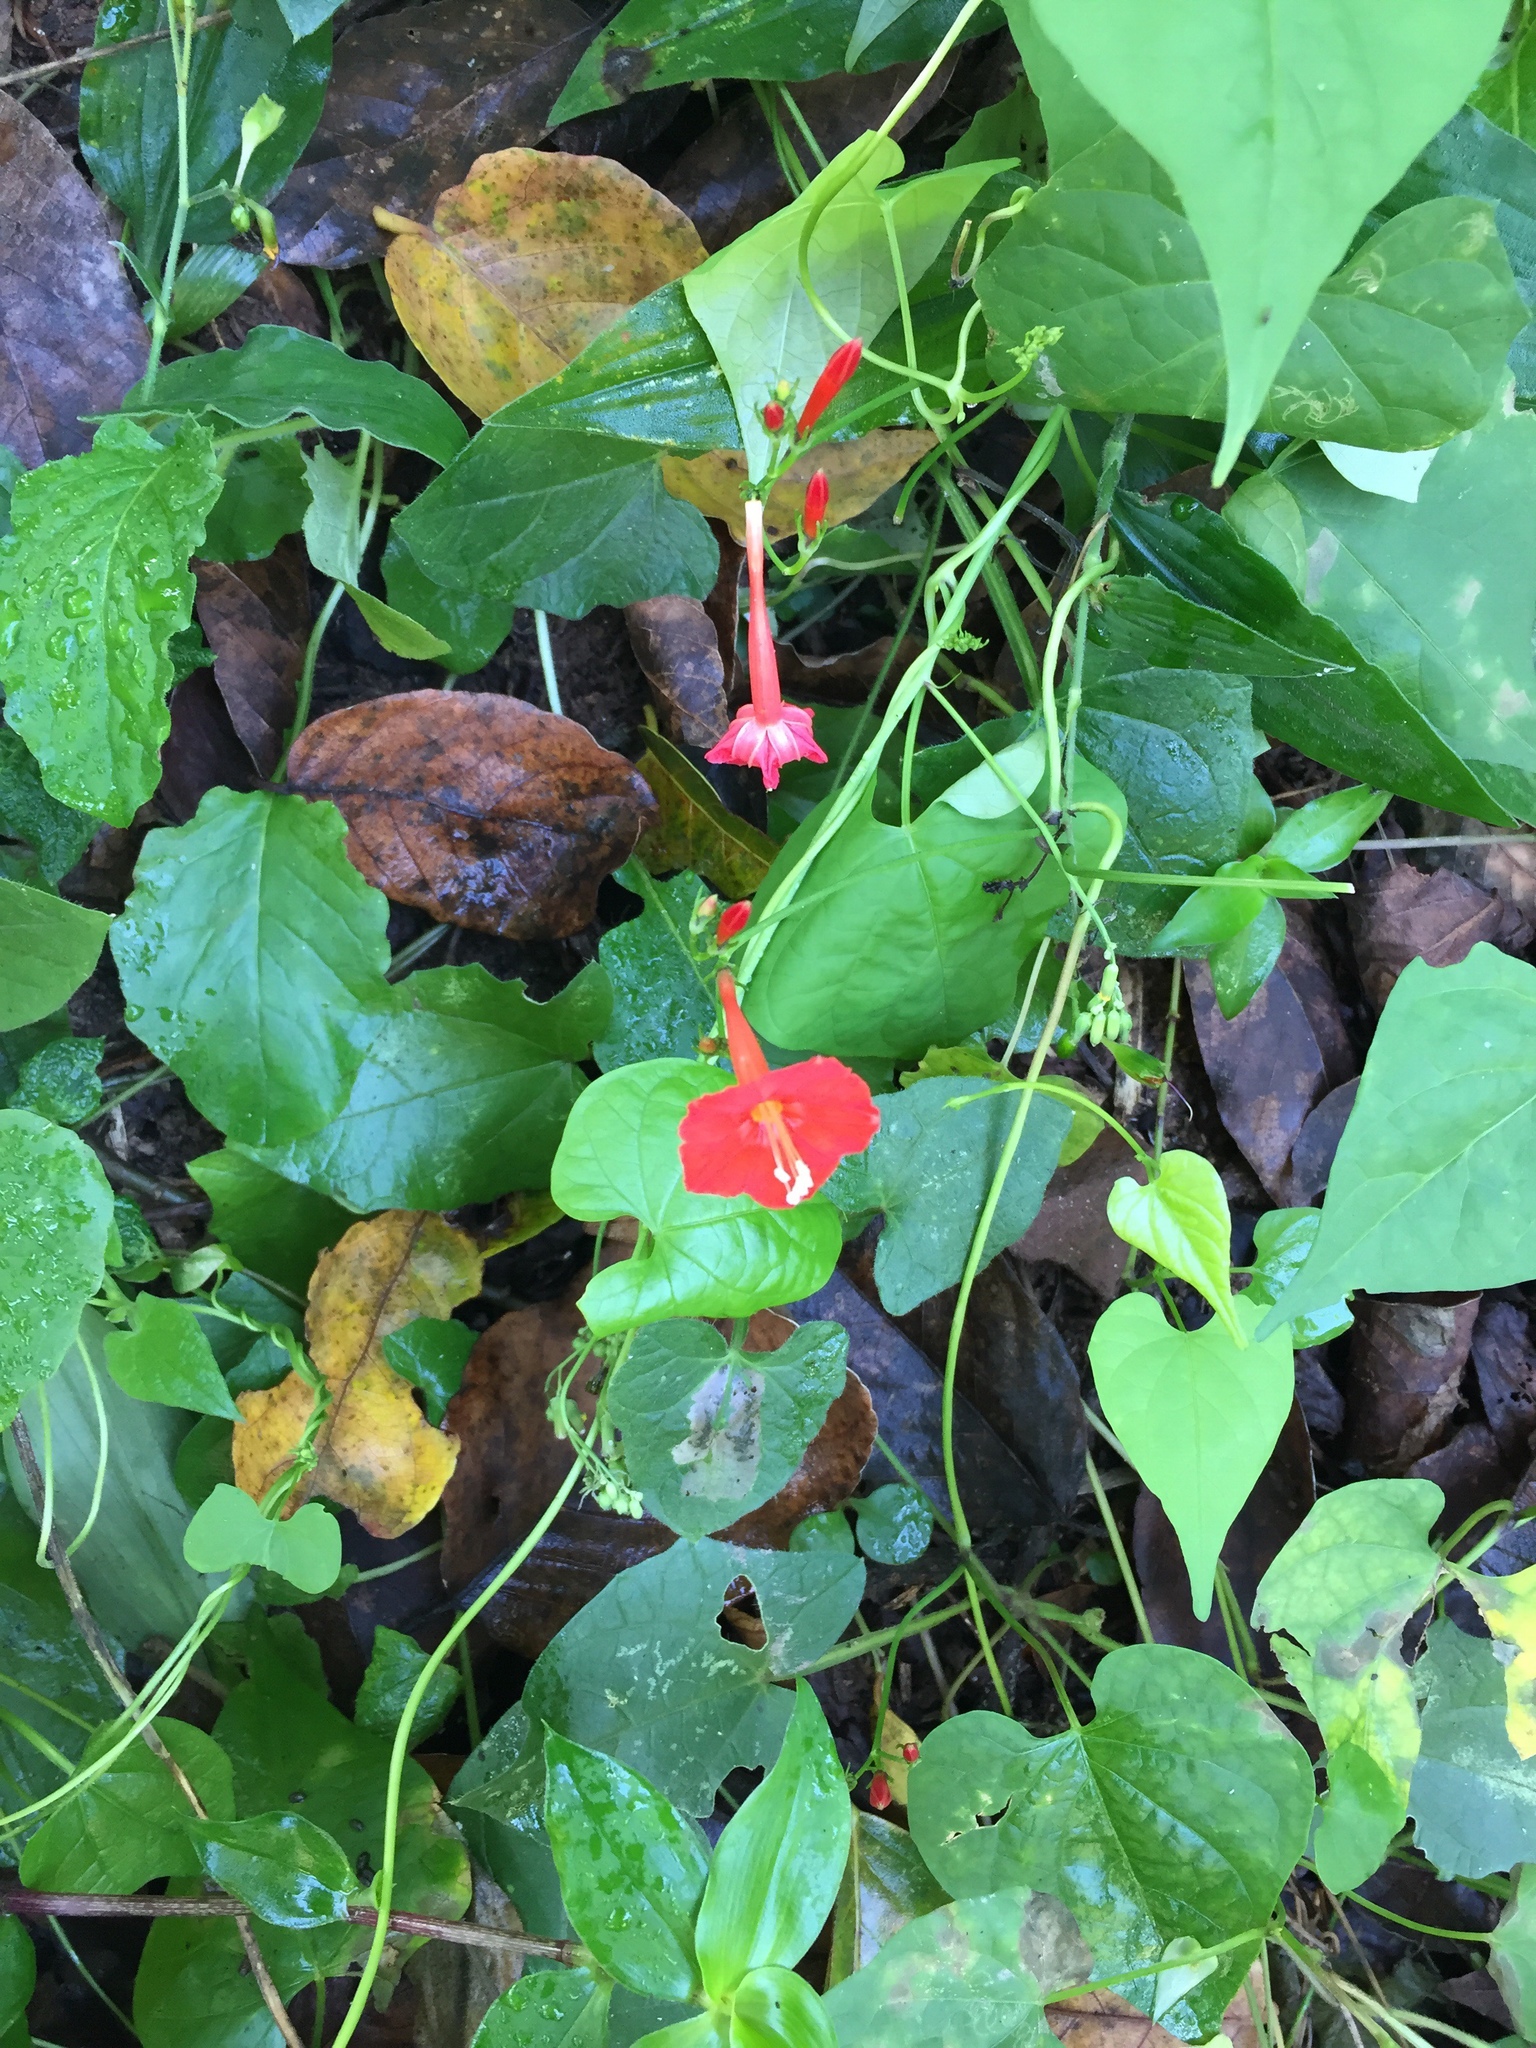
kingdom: Plantae
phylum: Tracheophyta
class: Magnoliopsida
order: Solanales
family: Convolvulaceae
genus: Ipomoea
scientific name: Ipomoea hederifolia
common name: Ivy-leaf morning-glory
